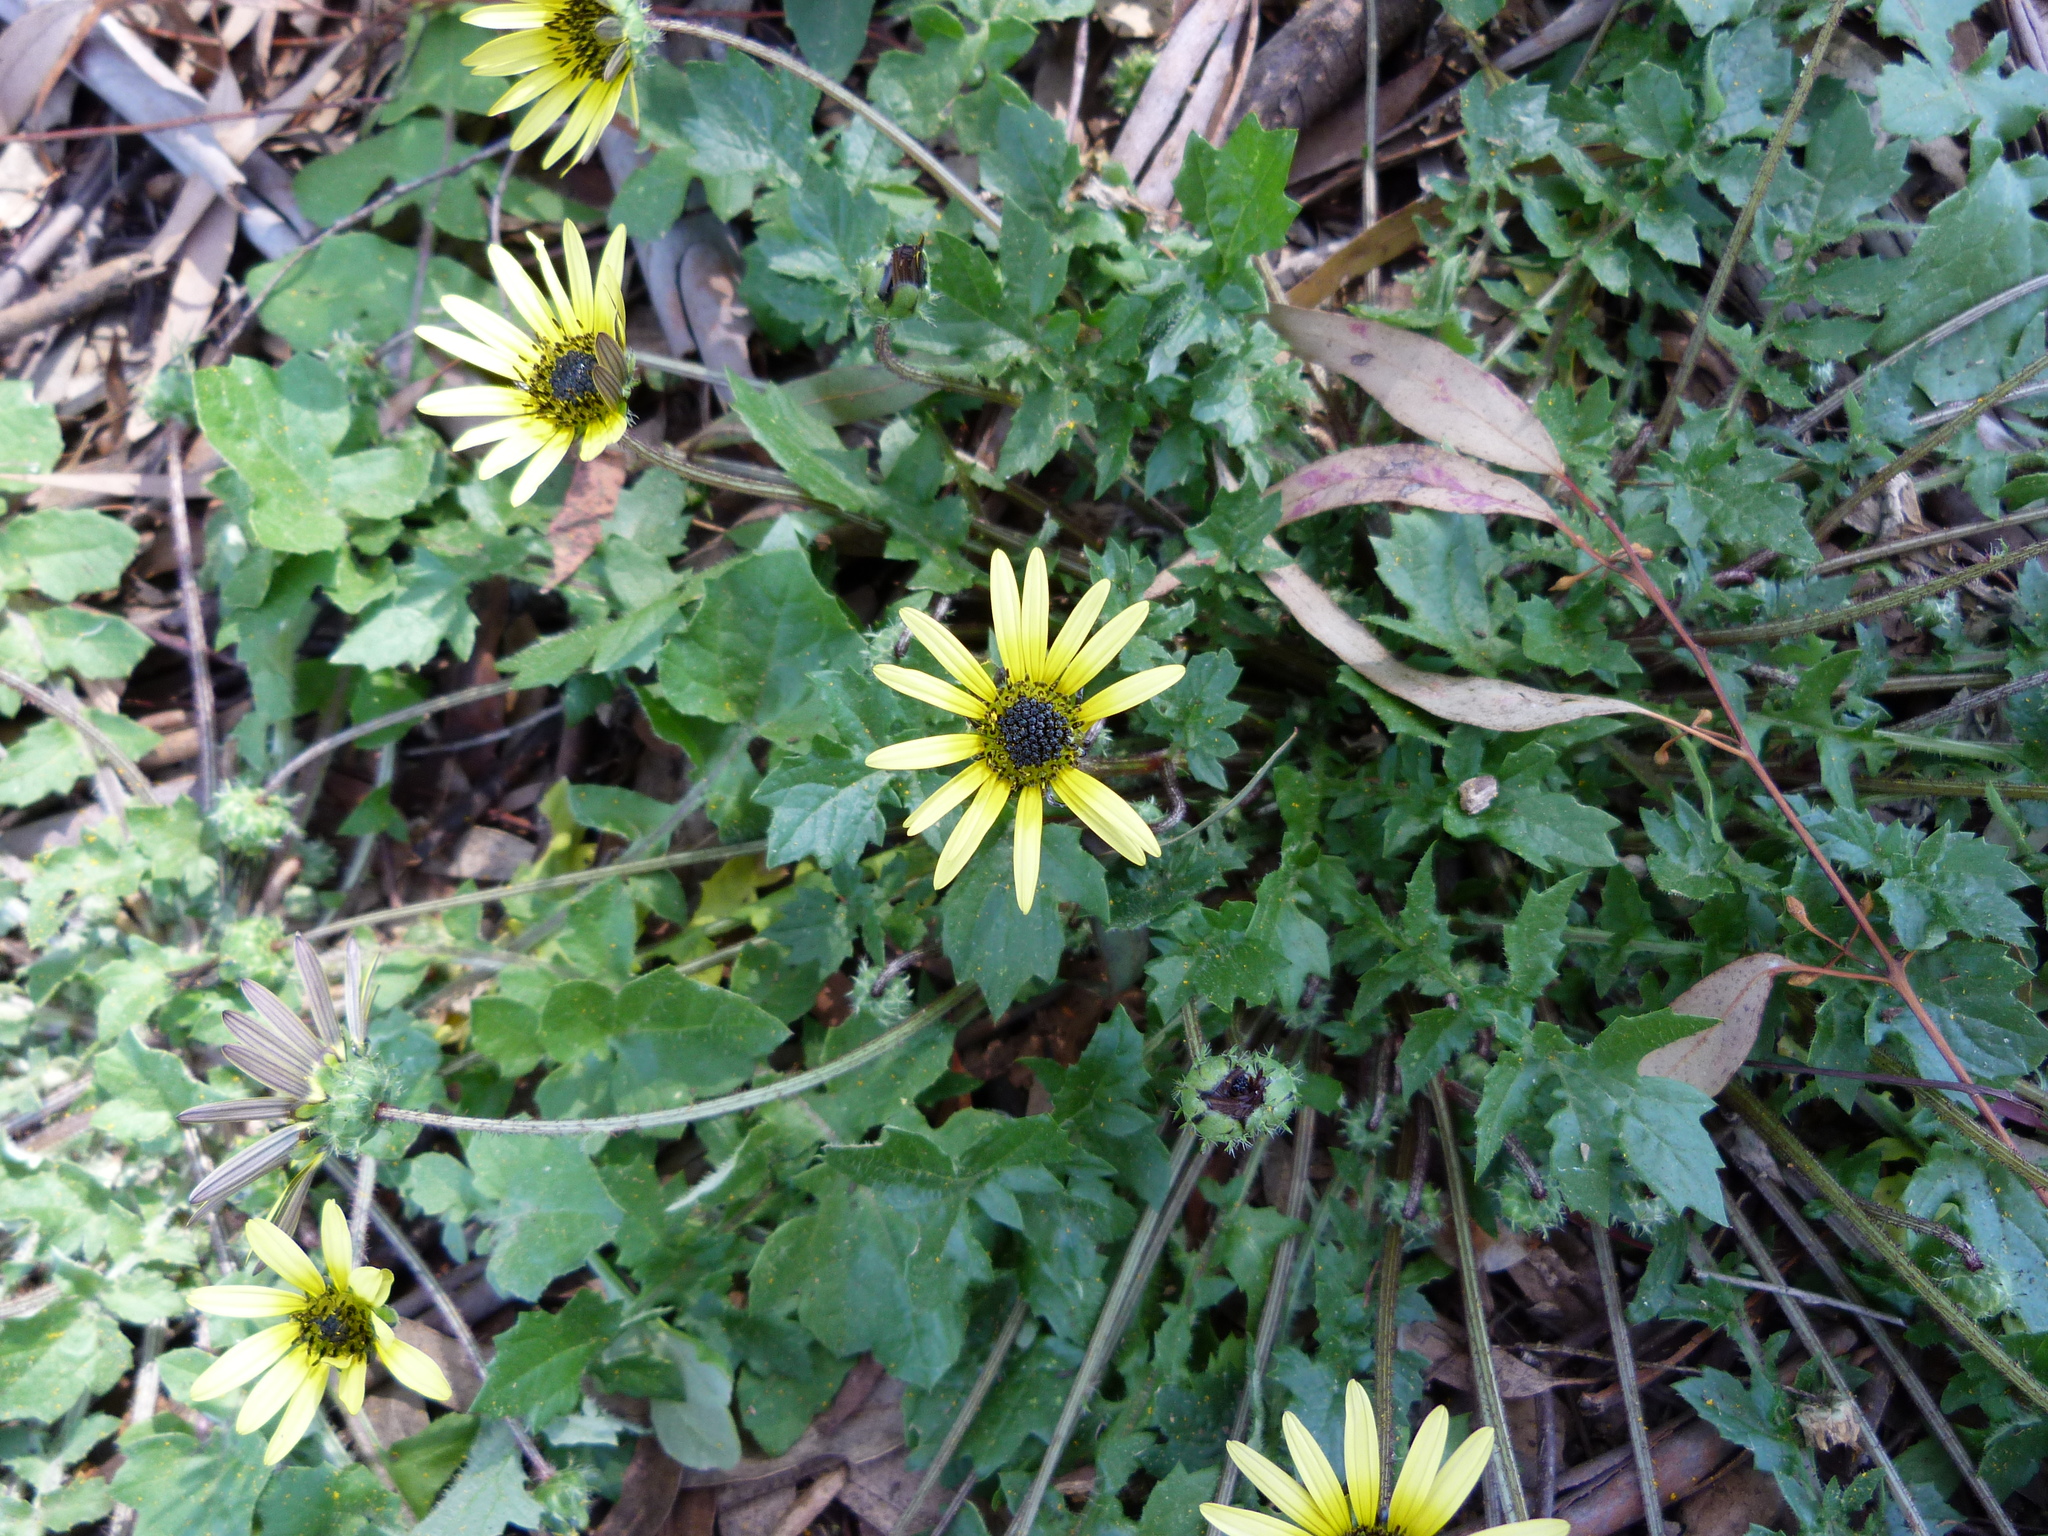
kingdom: Plantae
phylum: Tracheophyta
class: Magnoliopsida
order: Asterales
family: Asteraceae
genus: Arctotheca
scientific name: Arctotheca calendula
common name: Capeweed
